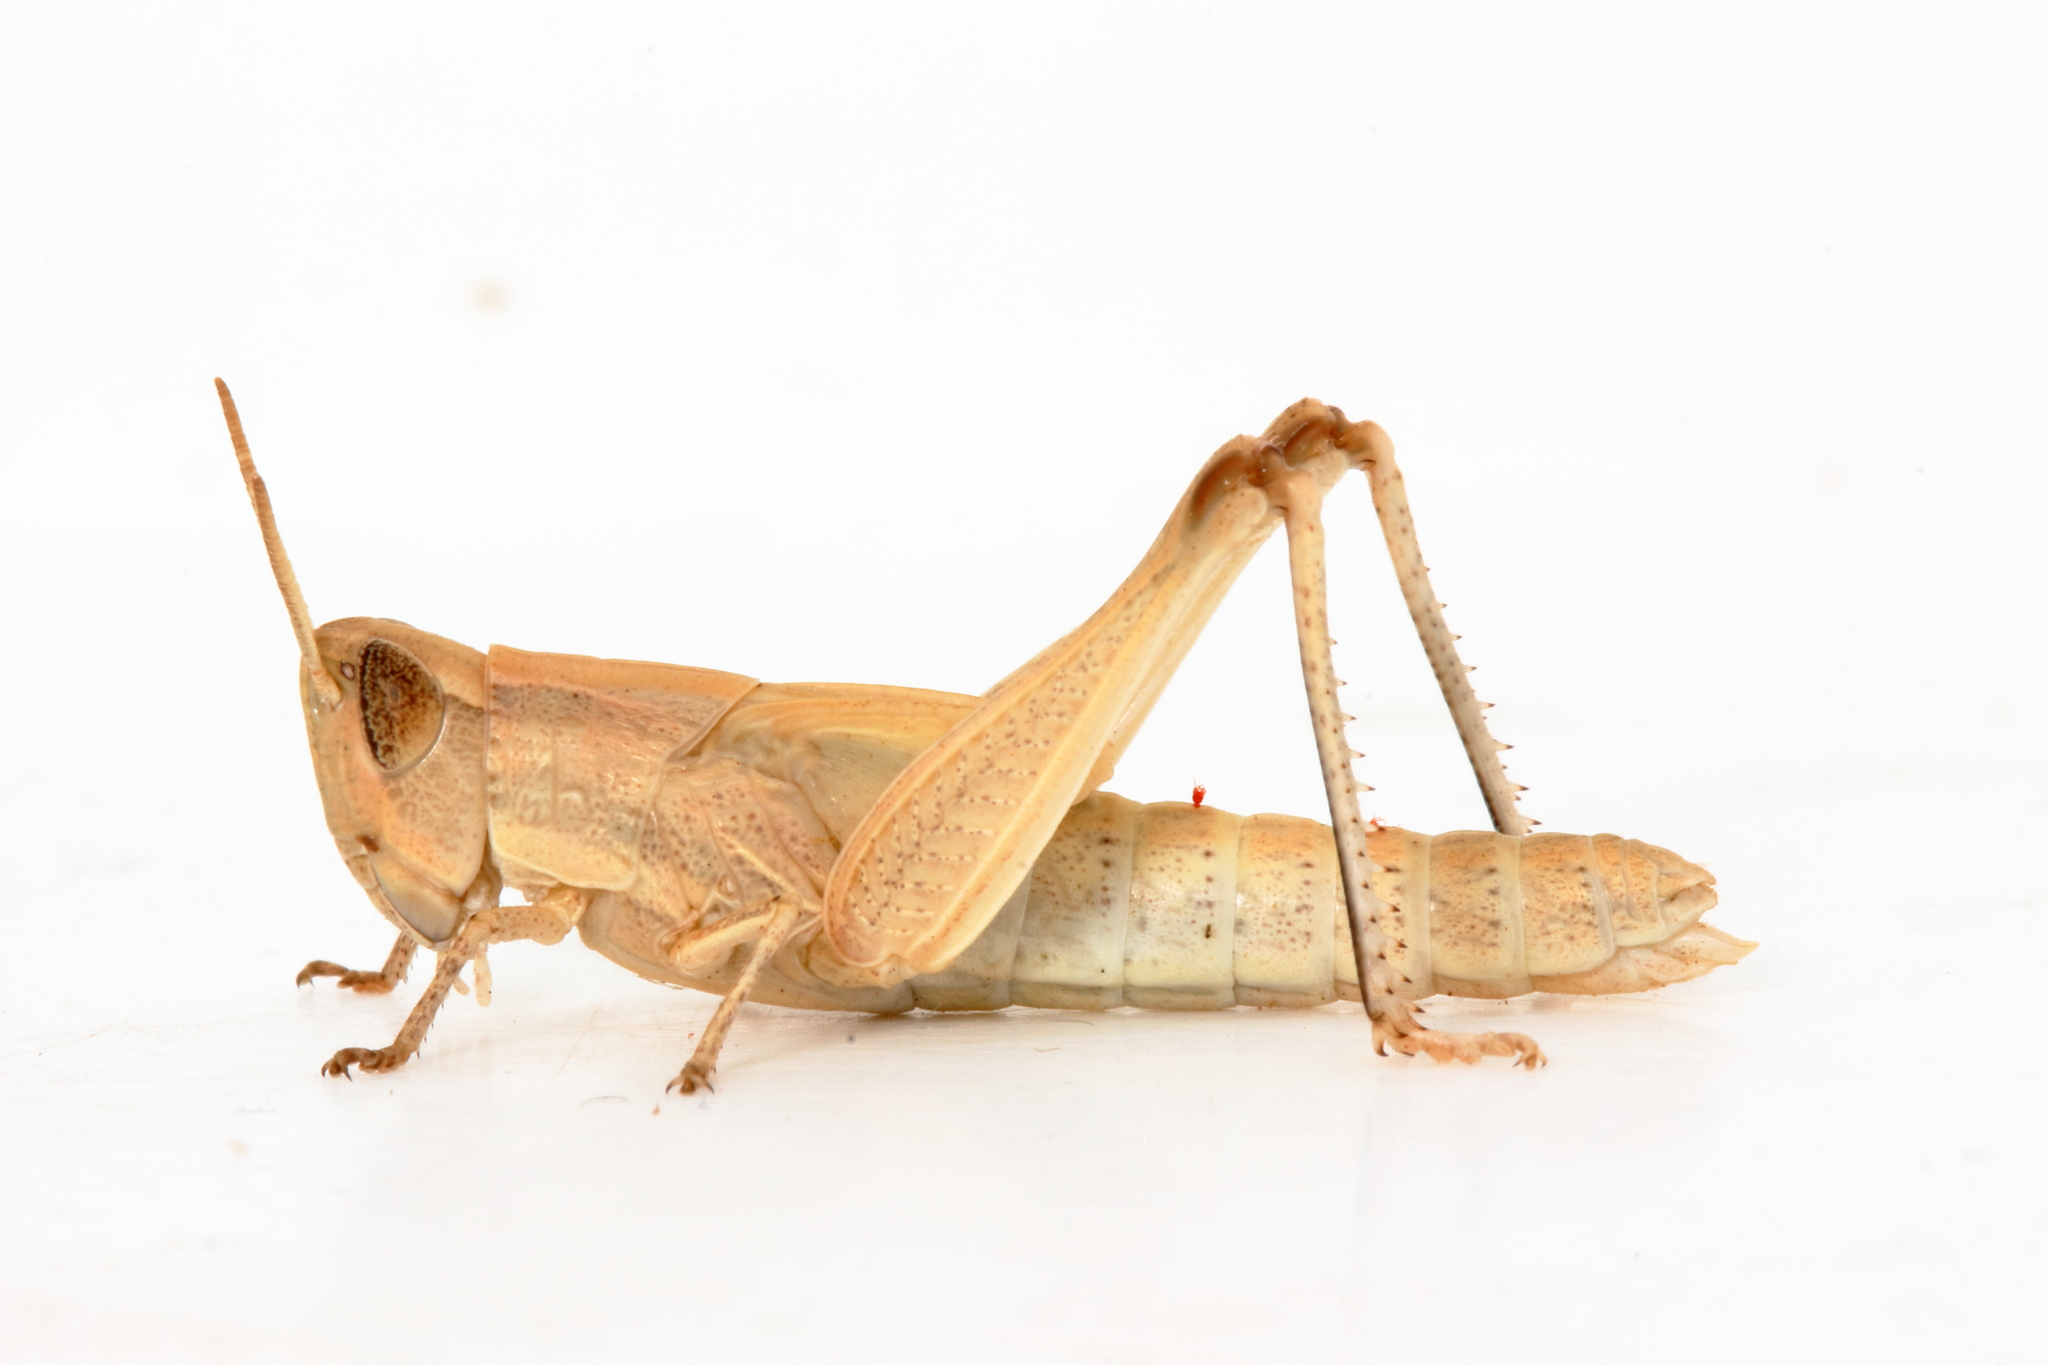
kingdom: Animalia
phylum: Arthropoda
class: Insecta
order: Orthoptera
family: Acrididae
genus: Aiolopus
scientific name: Aiolopus thalassinus
